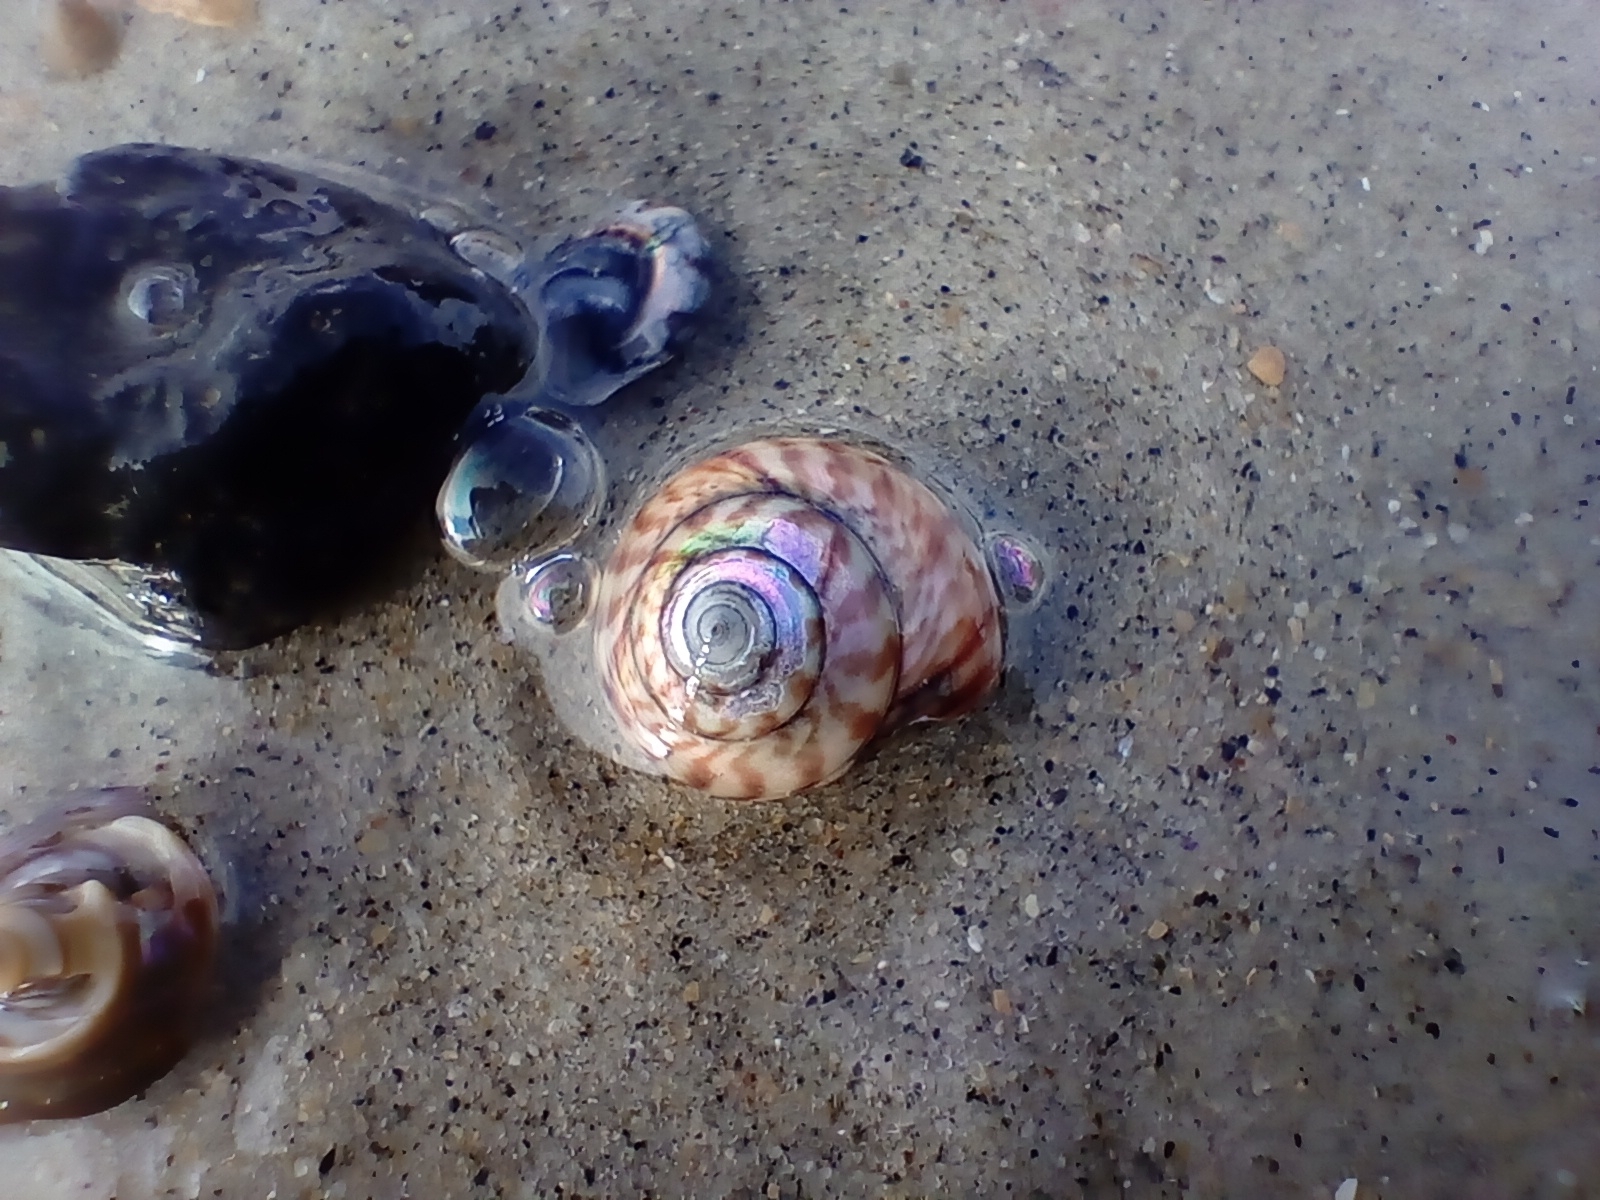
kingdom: Animalia
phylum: Mollusca
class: Gastropoda
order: Trochida
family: Trochidae
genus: Zethalia
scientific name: Zethalia zelandica
